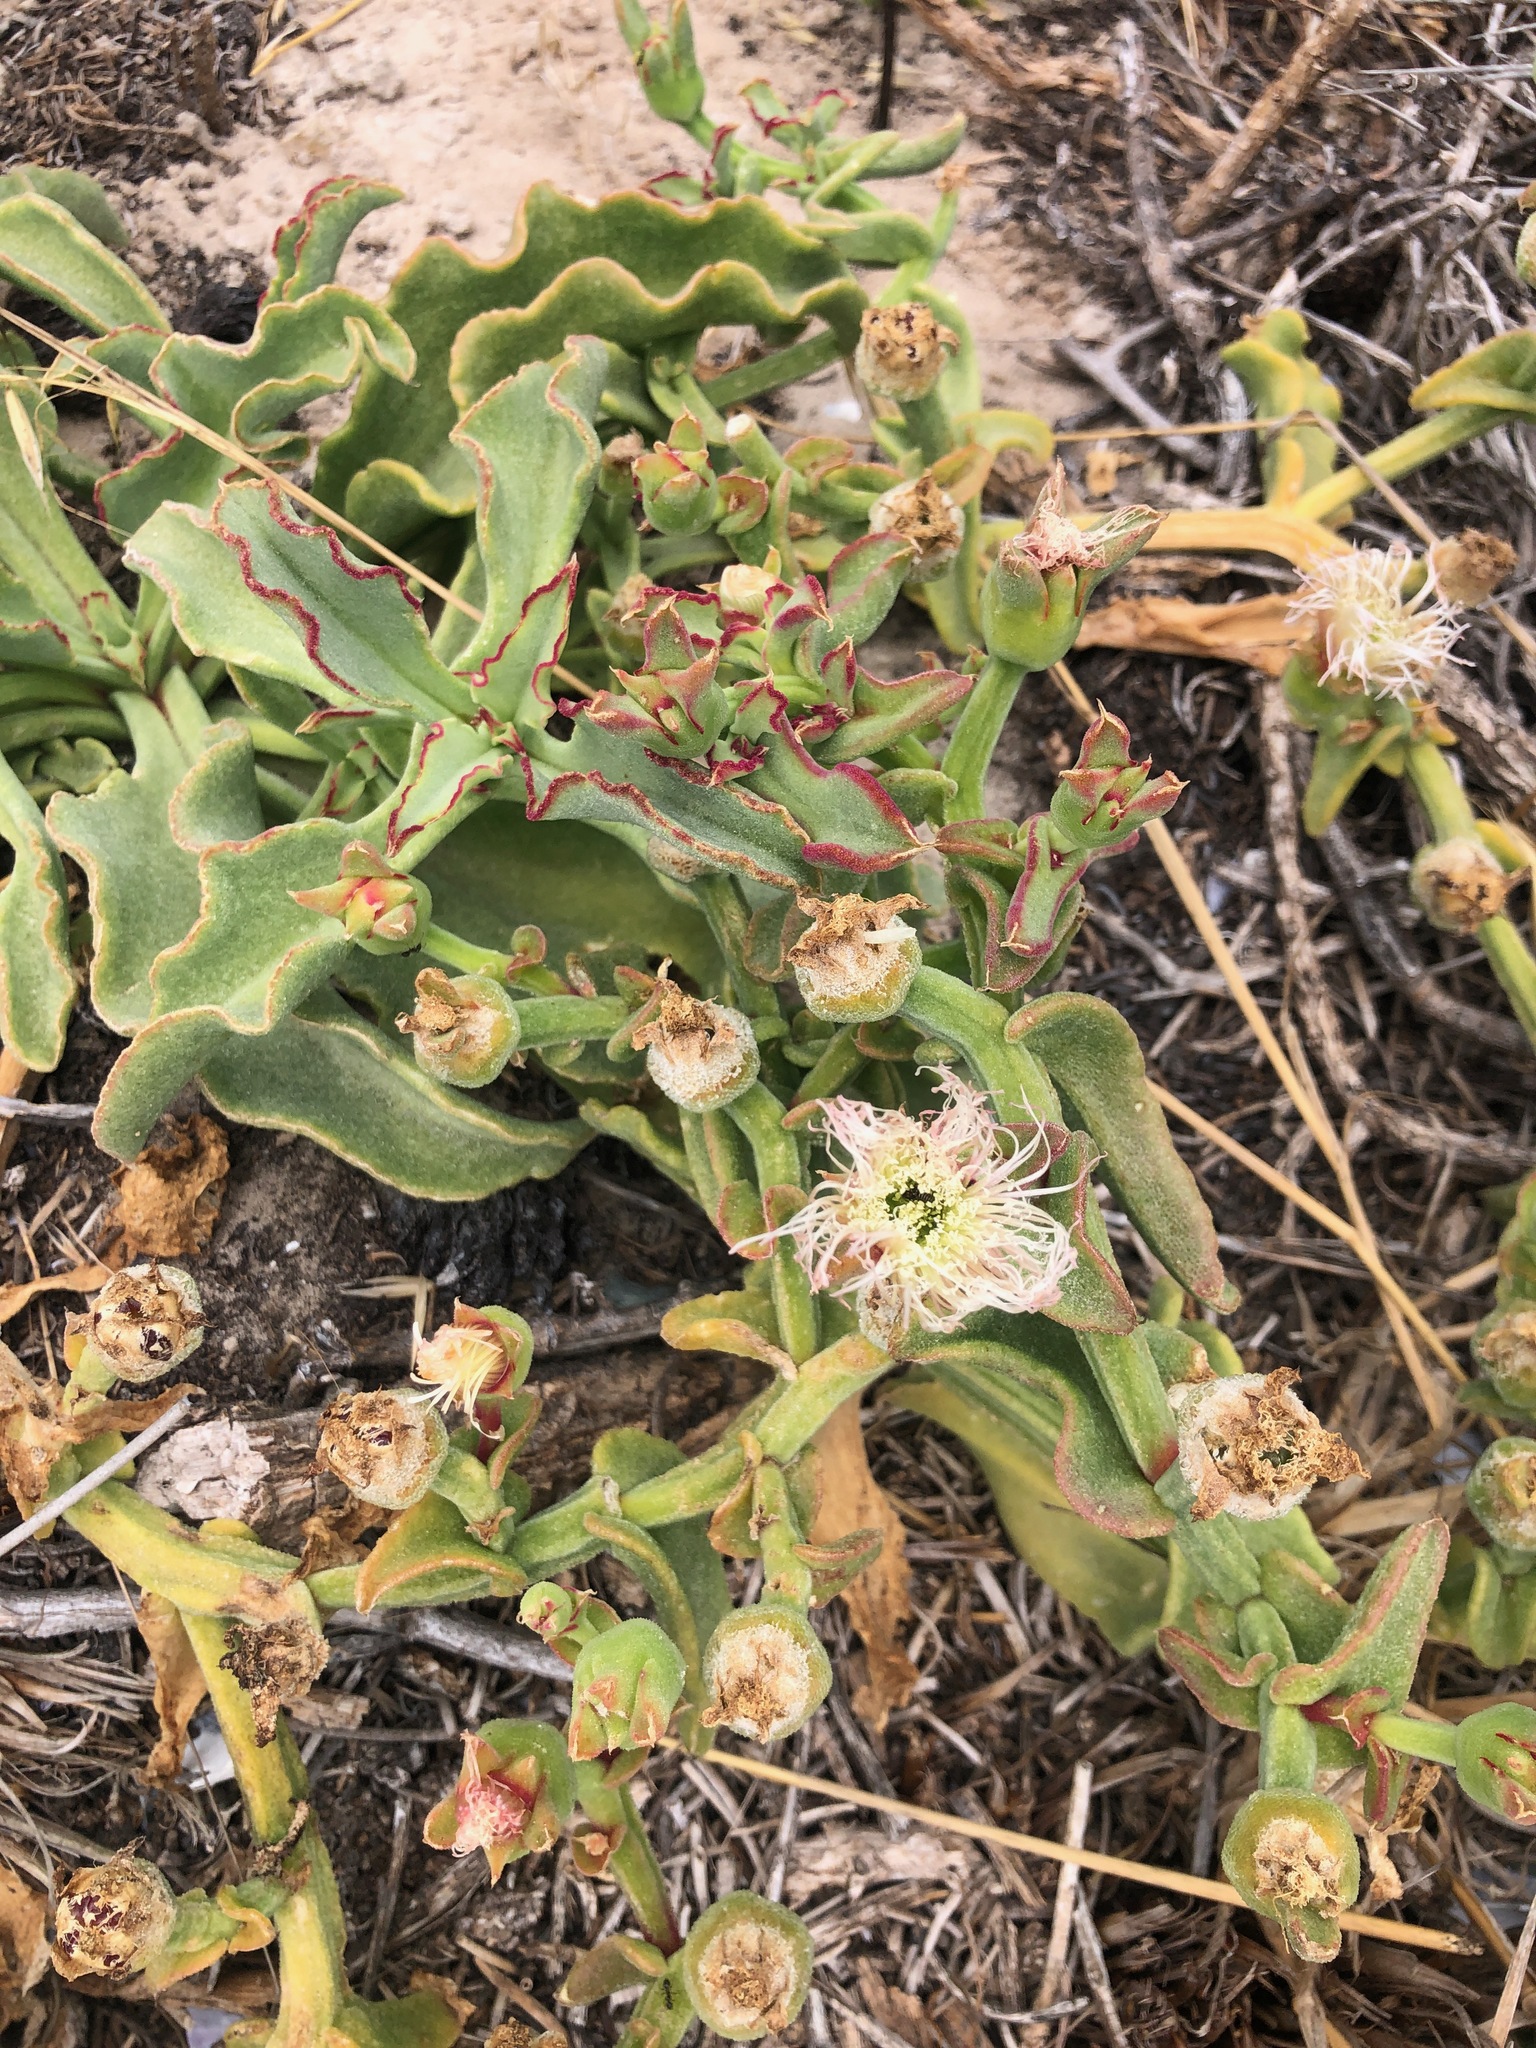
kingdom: Plantae
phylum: Tracheophyta
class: Magnoliopsida
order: Caryophyllales
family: Aizoaceae
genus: Mesembryanthemum
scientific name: Mesembryanthemum guerichianum
